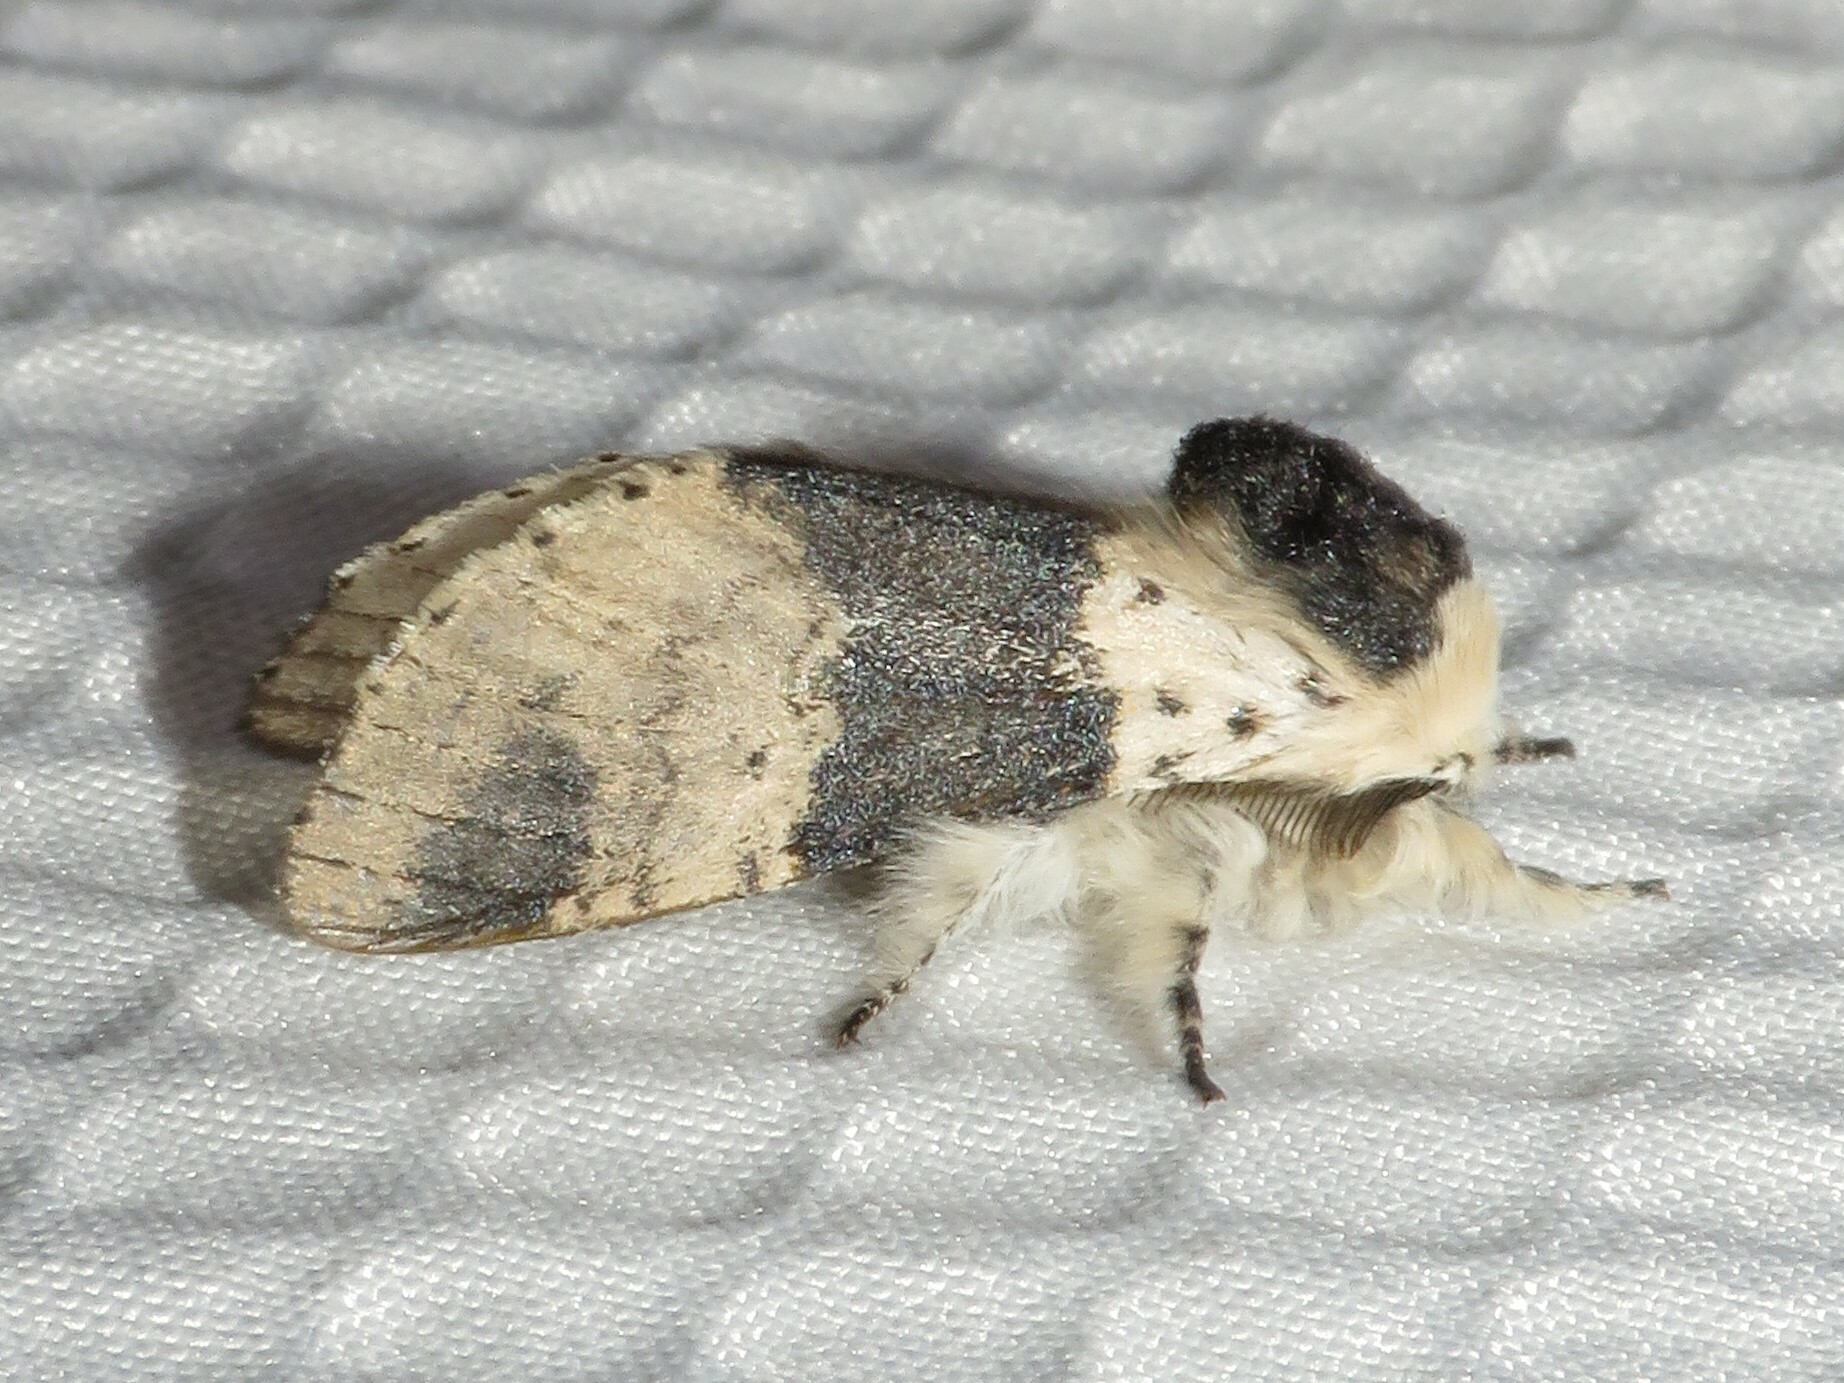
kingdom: Animalia
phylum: Arthropoda
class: Insecta
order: Lepidoptera
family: Notodontidae
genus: Furcula
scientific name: Furcula modesta
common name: Modest furcula moth
